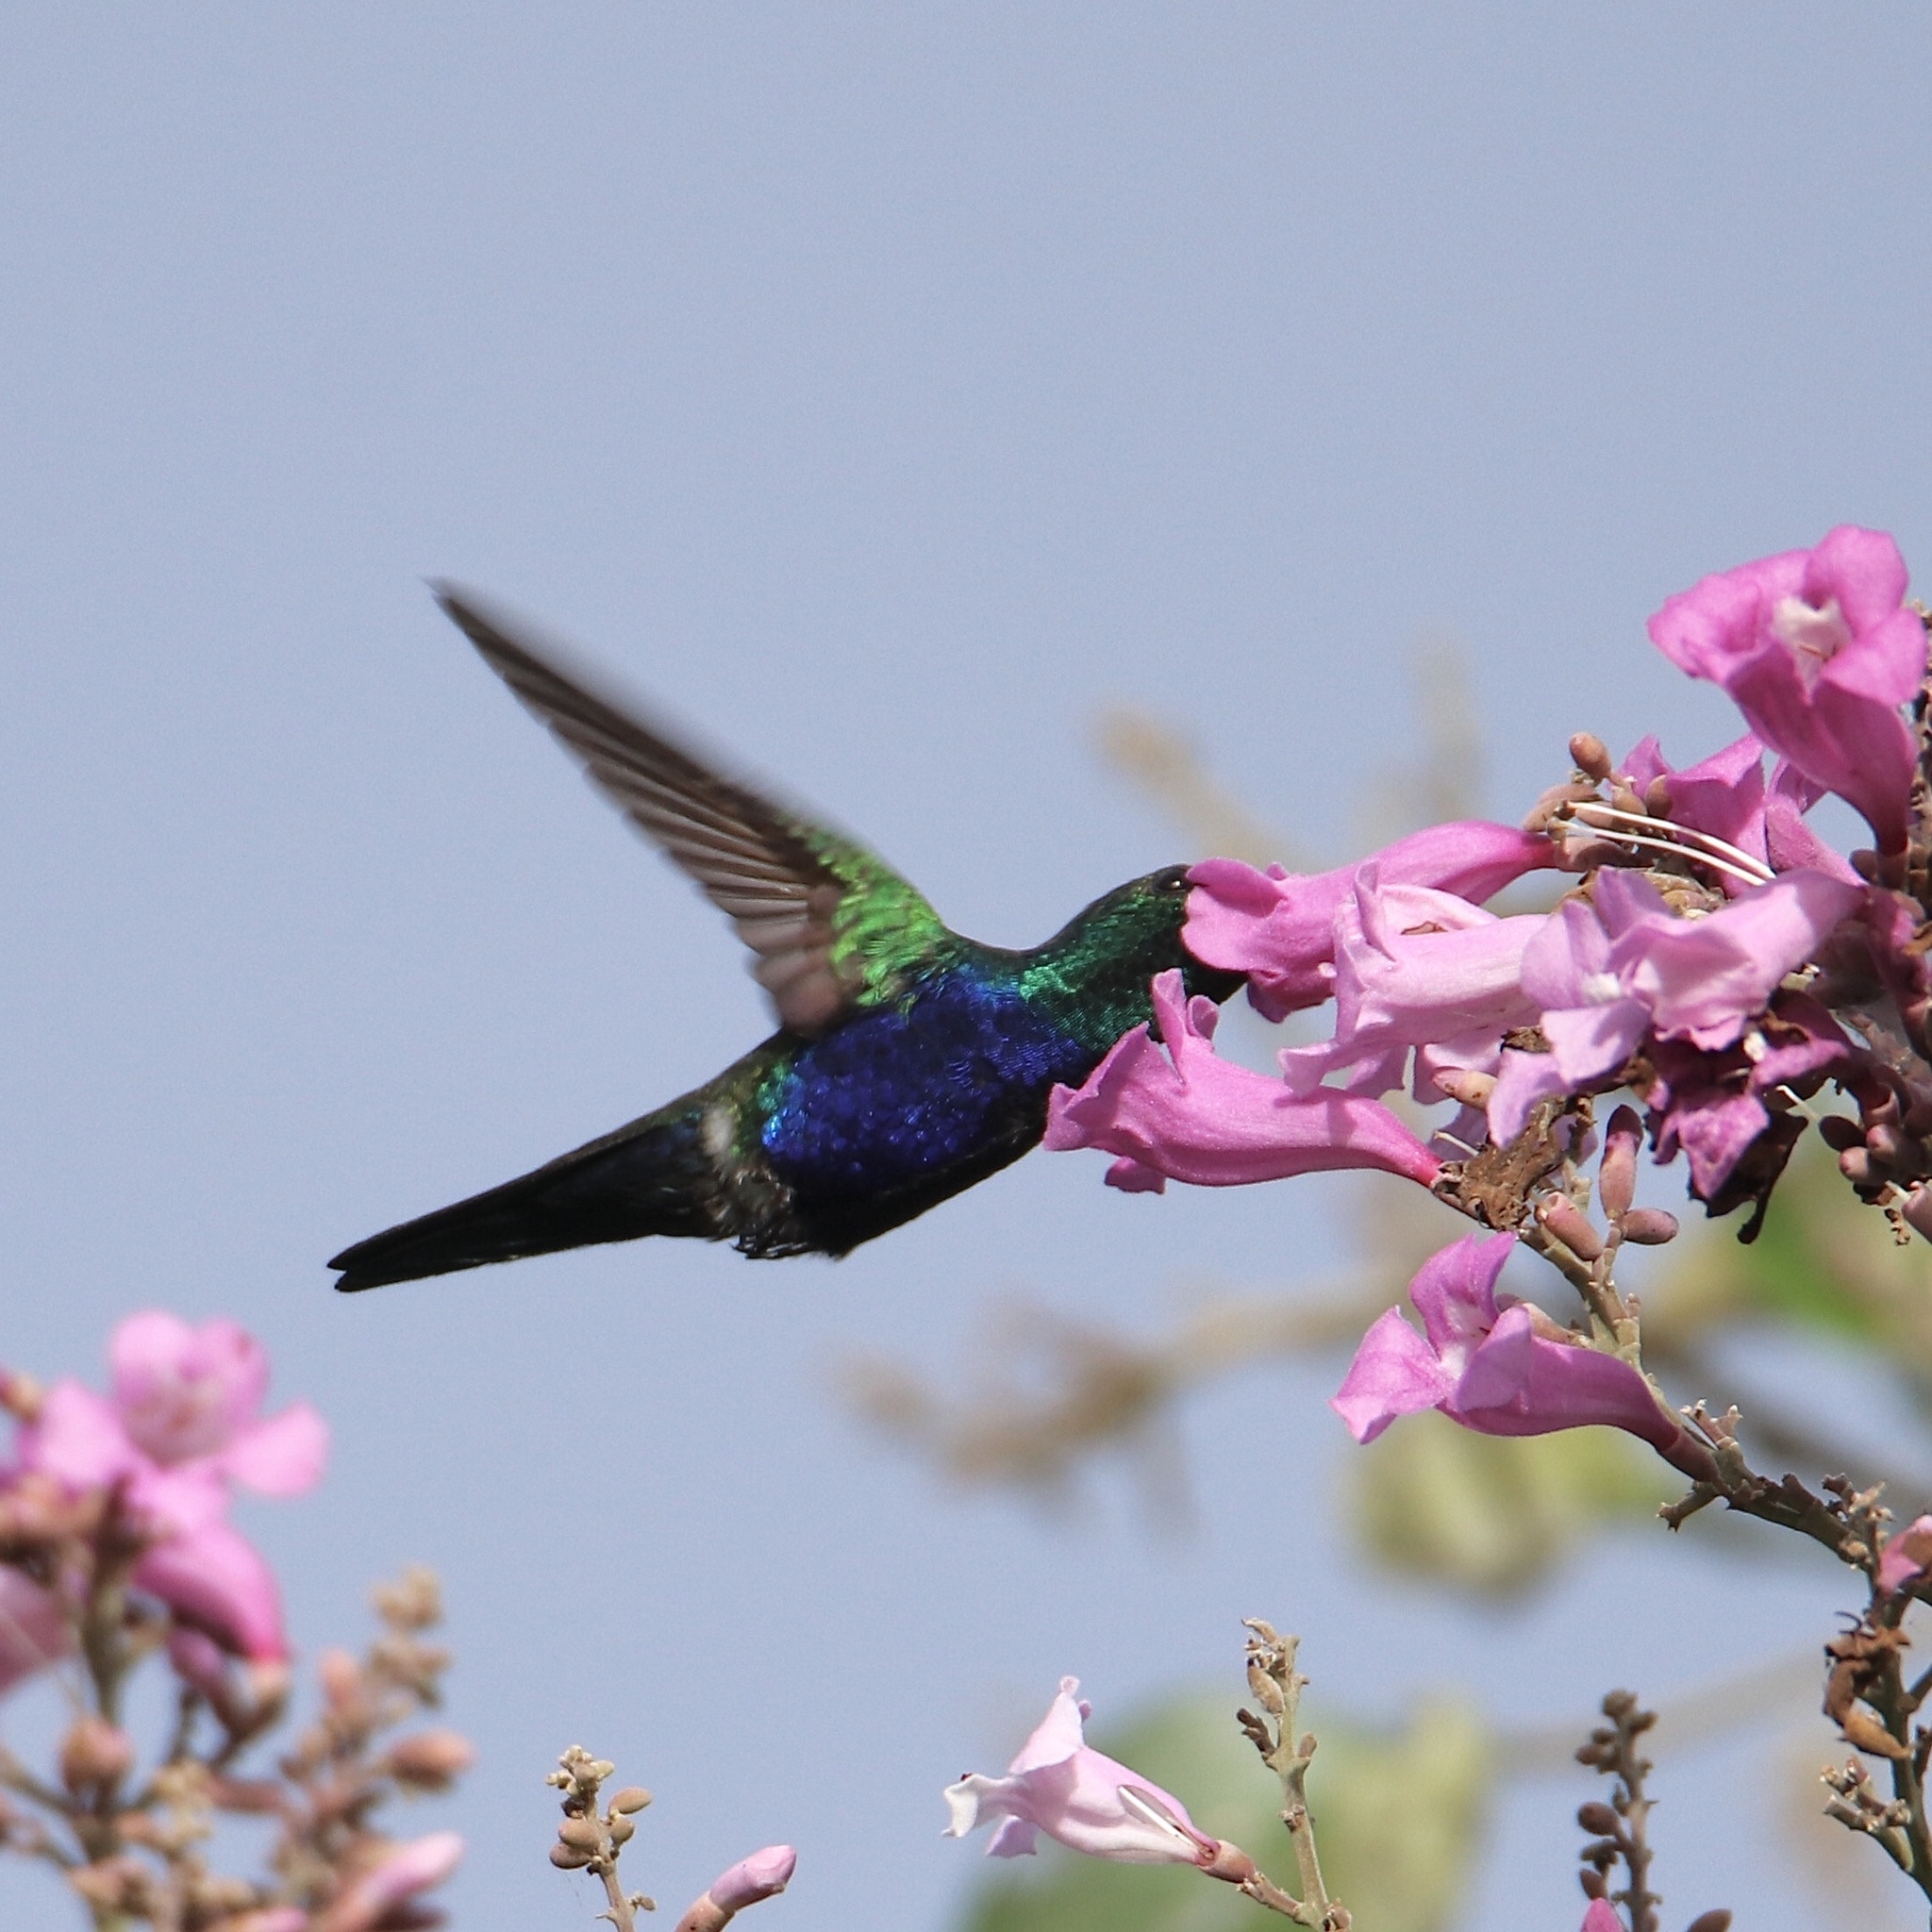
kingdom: Animalia
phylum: Chordata
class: Aves
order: Apodiformes
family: Trochilidae
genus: Chlorestes
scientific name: Chlorestes julie
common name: Violet-bellied hummingbird
